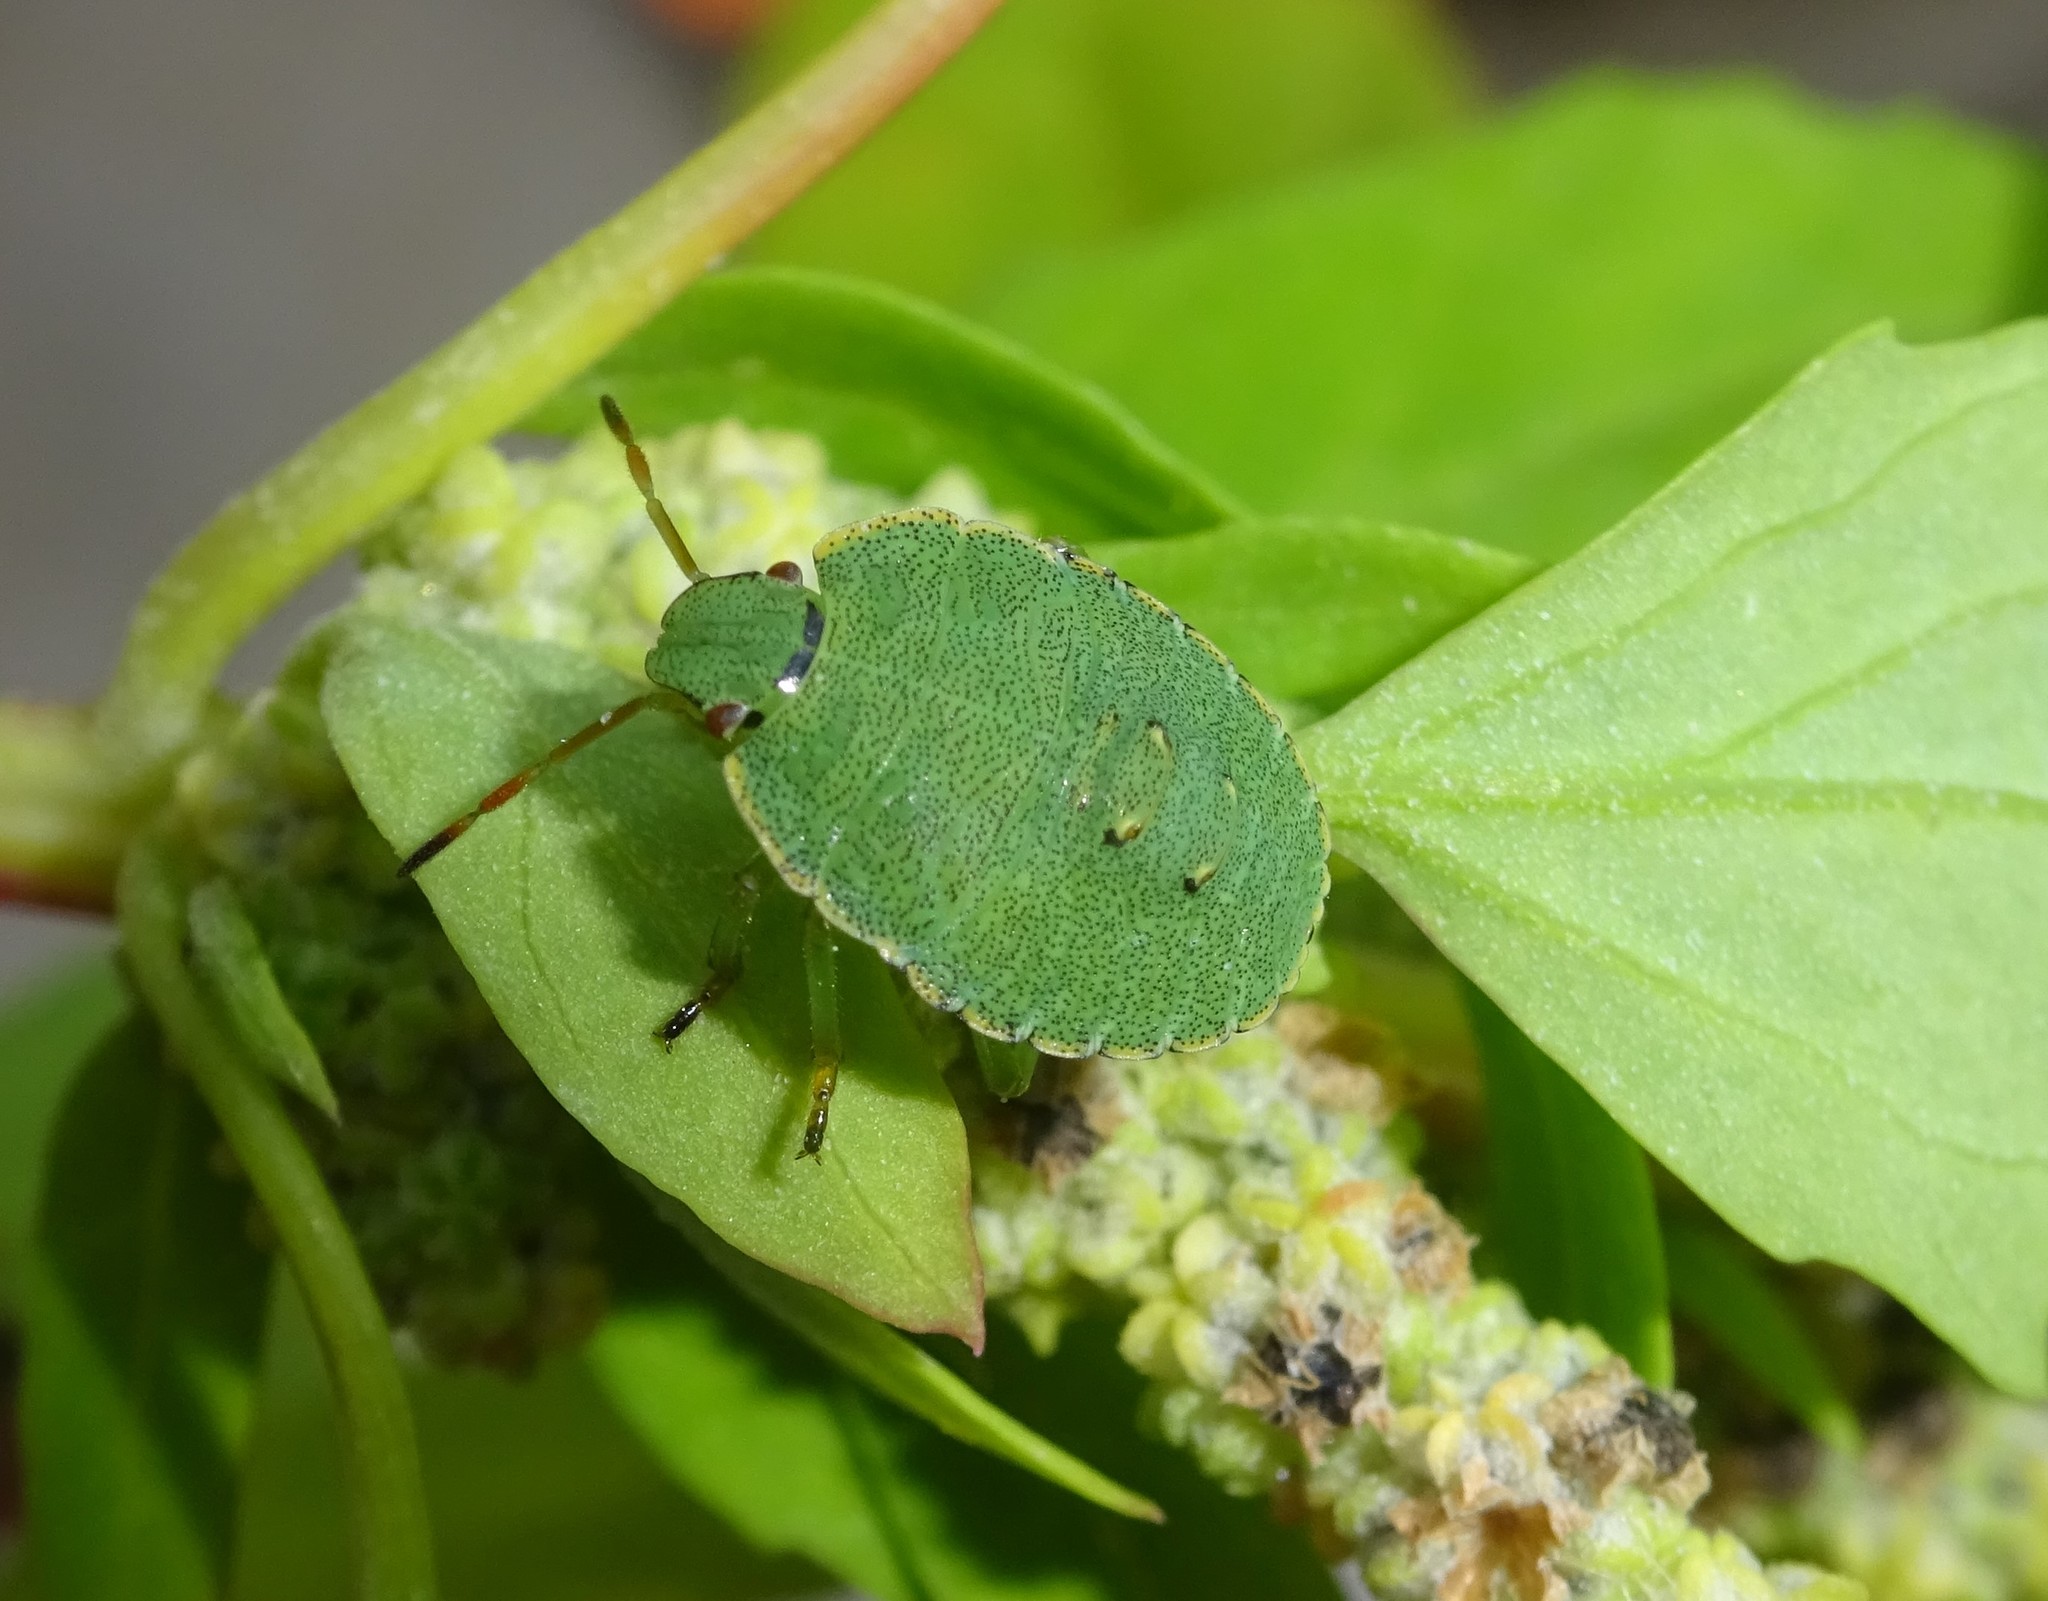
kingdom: Animalia
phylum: Arthropoda
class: Insecta
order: Hemiptera
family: Pentatomidae
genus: Palomena
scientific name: Palomena prasina
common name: Green shieldbug
